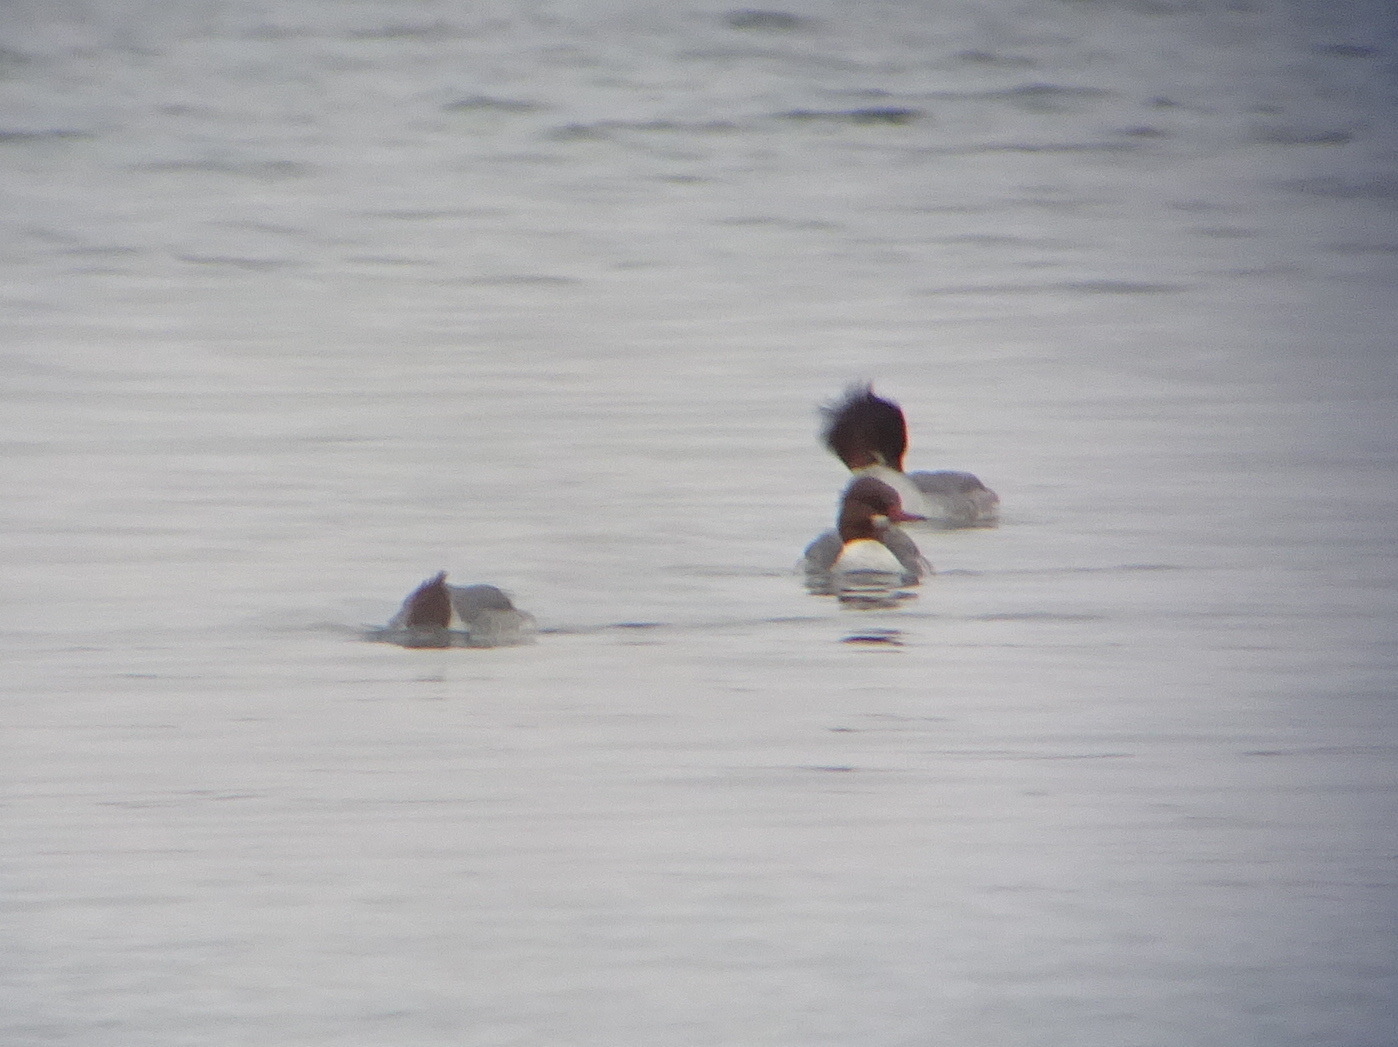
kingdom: Animalia
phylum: Chordata
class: Aves
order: Anseriformes
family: Anatidae
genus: Mergus
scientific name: Mergus merganser
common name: Common merganser
